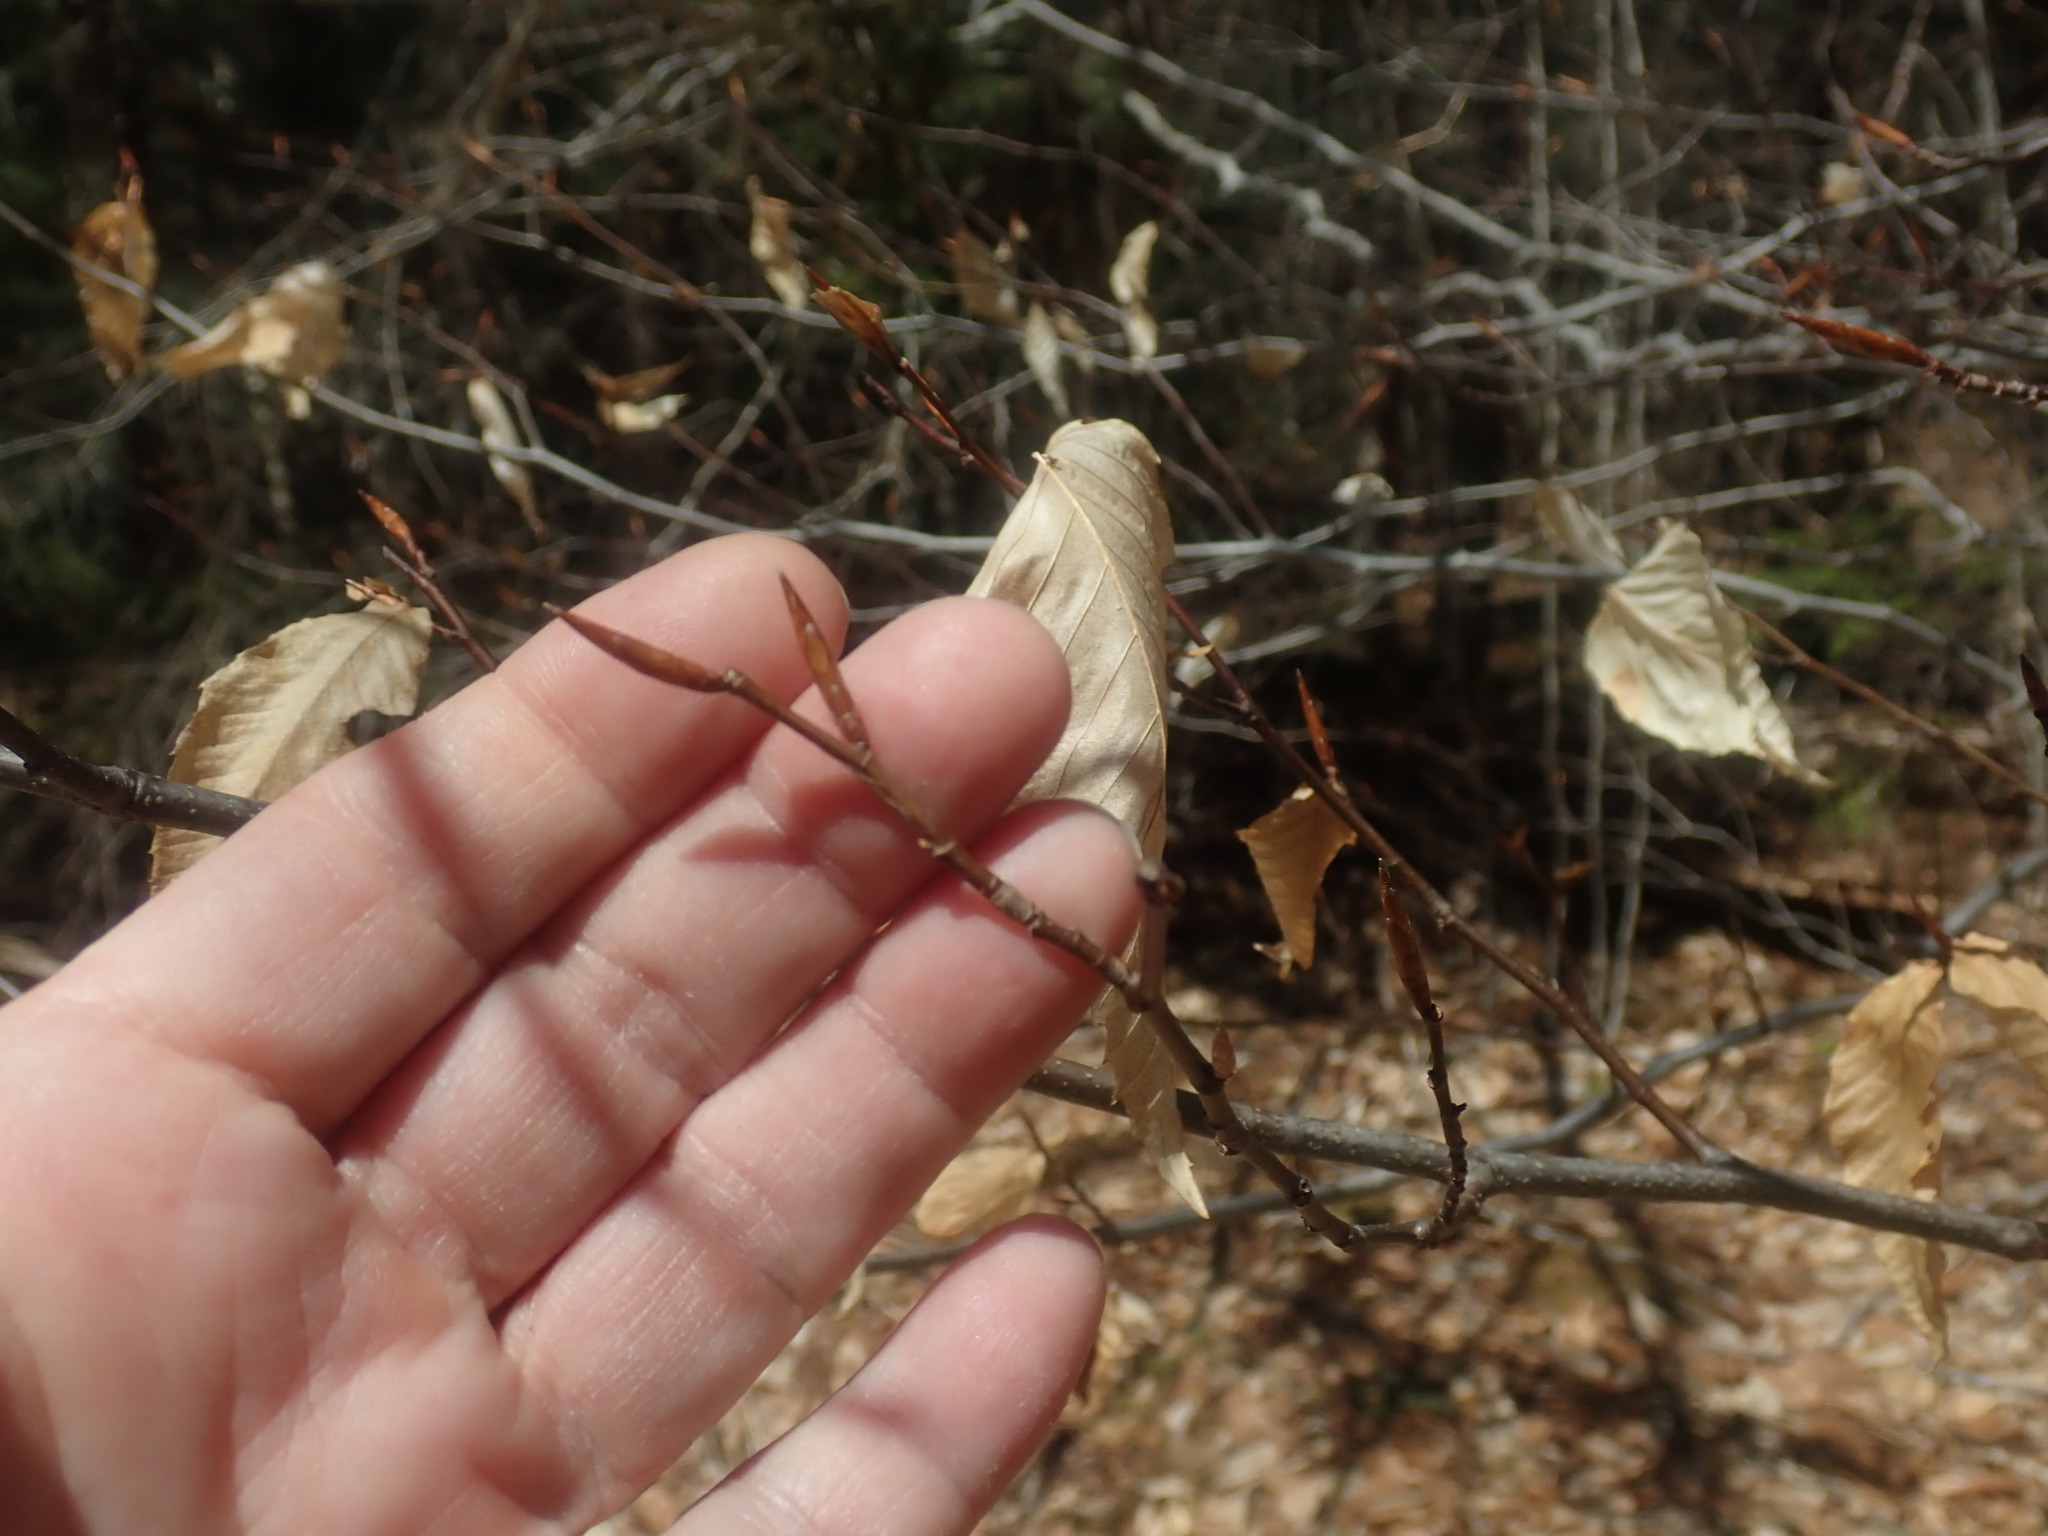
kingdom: Plantae
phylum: Tracheophyta
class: Magnoliopsida
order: Fagales
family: Fagaceae
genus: Fagus
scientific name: Fagus grandifolia
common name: American beech
